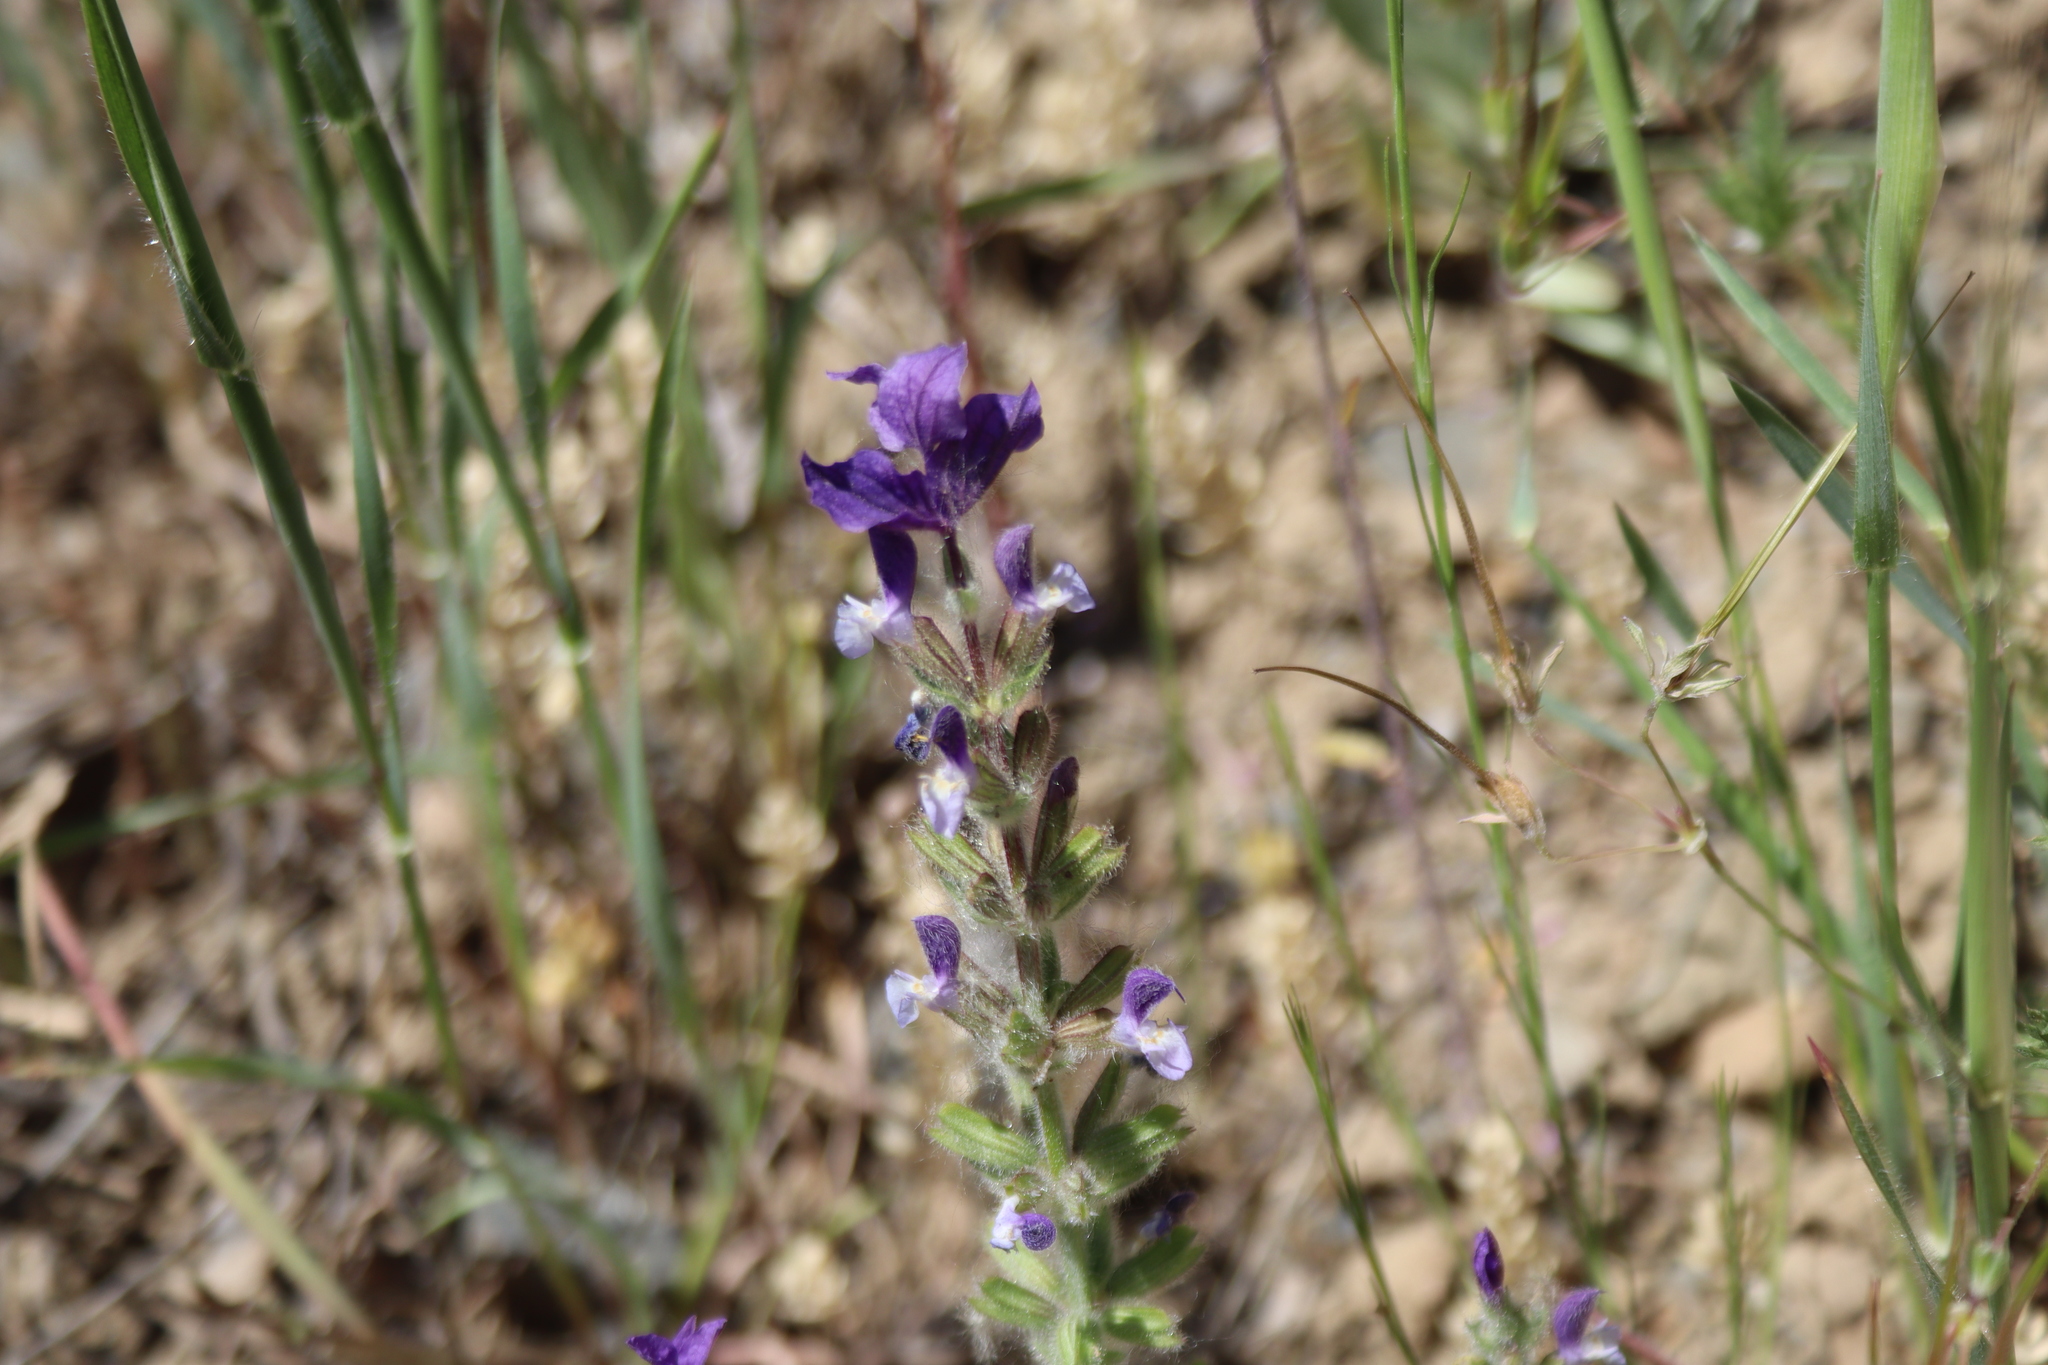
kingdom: Plantae
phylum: Tracheophyta
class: Magnoliopsida
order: Lamiales
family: Lamiaceae
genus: Salvia
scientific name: Salvia viridis
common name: Annual clary
